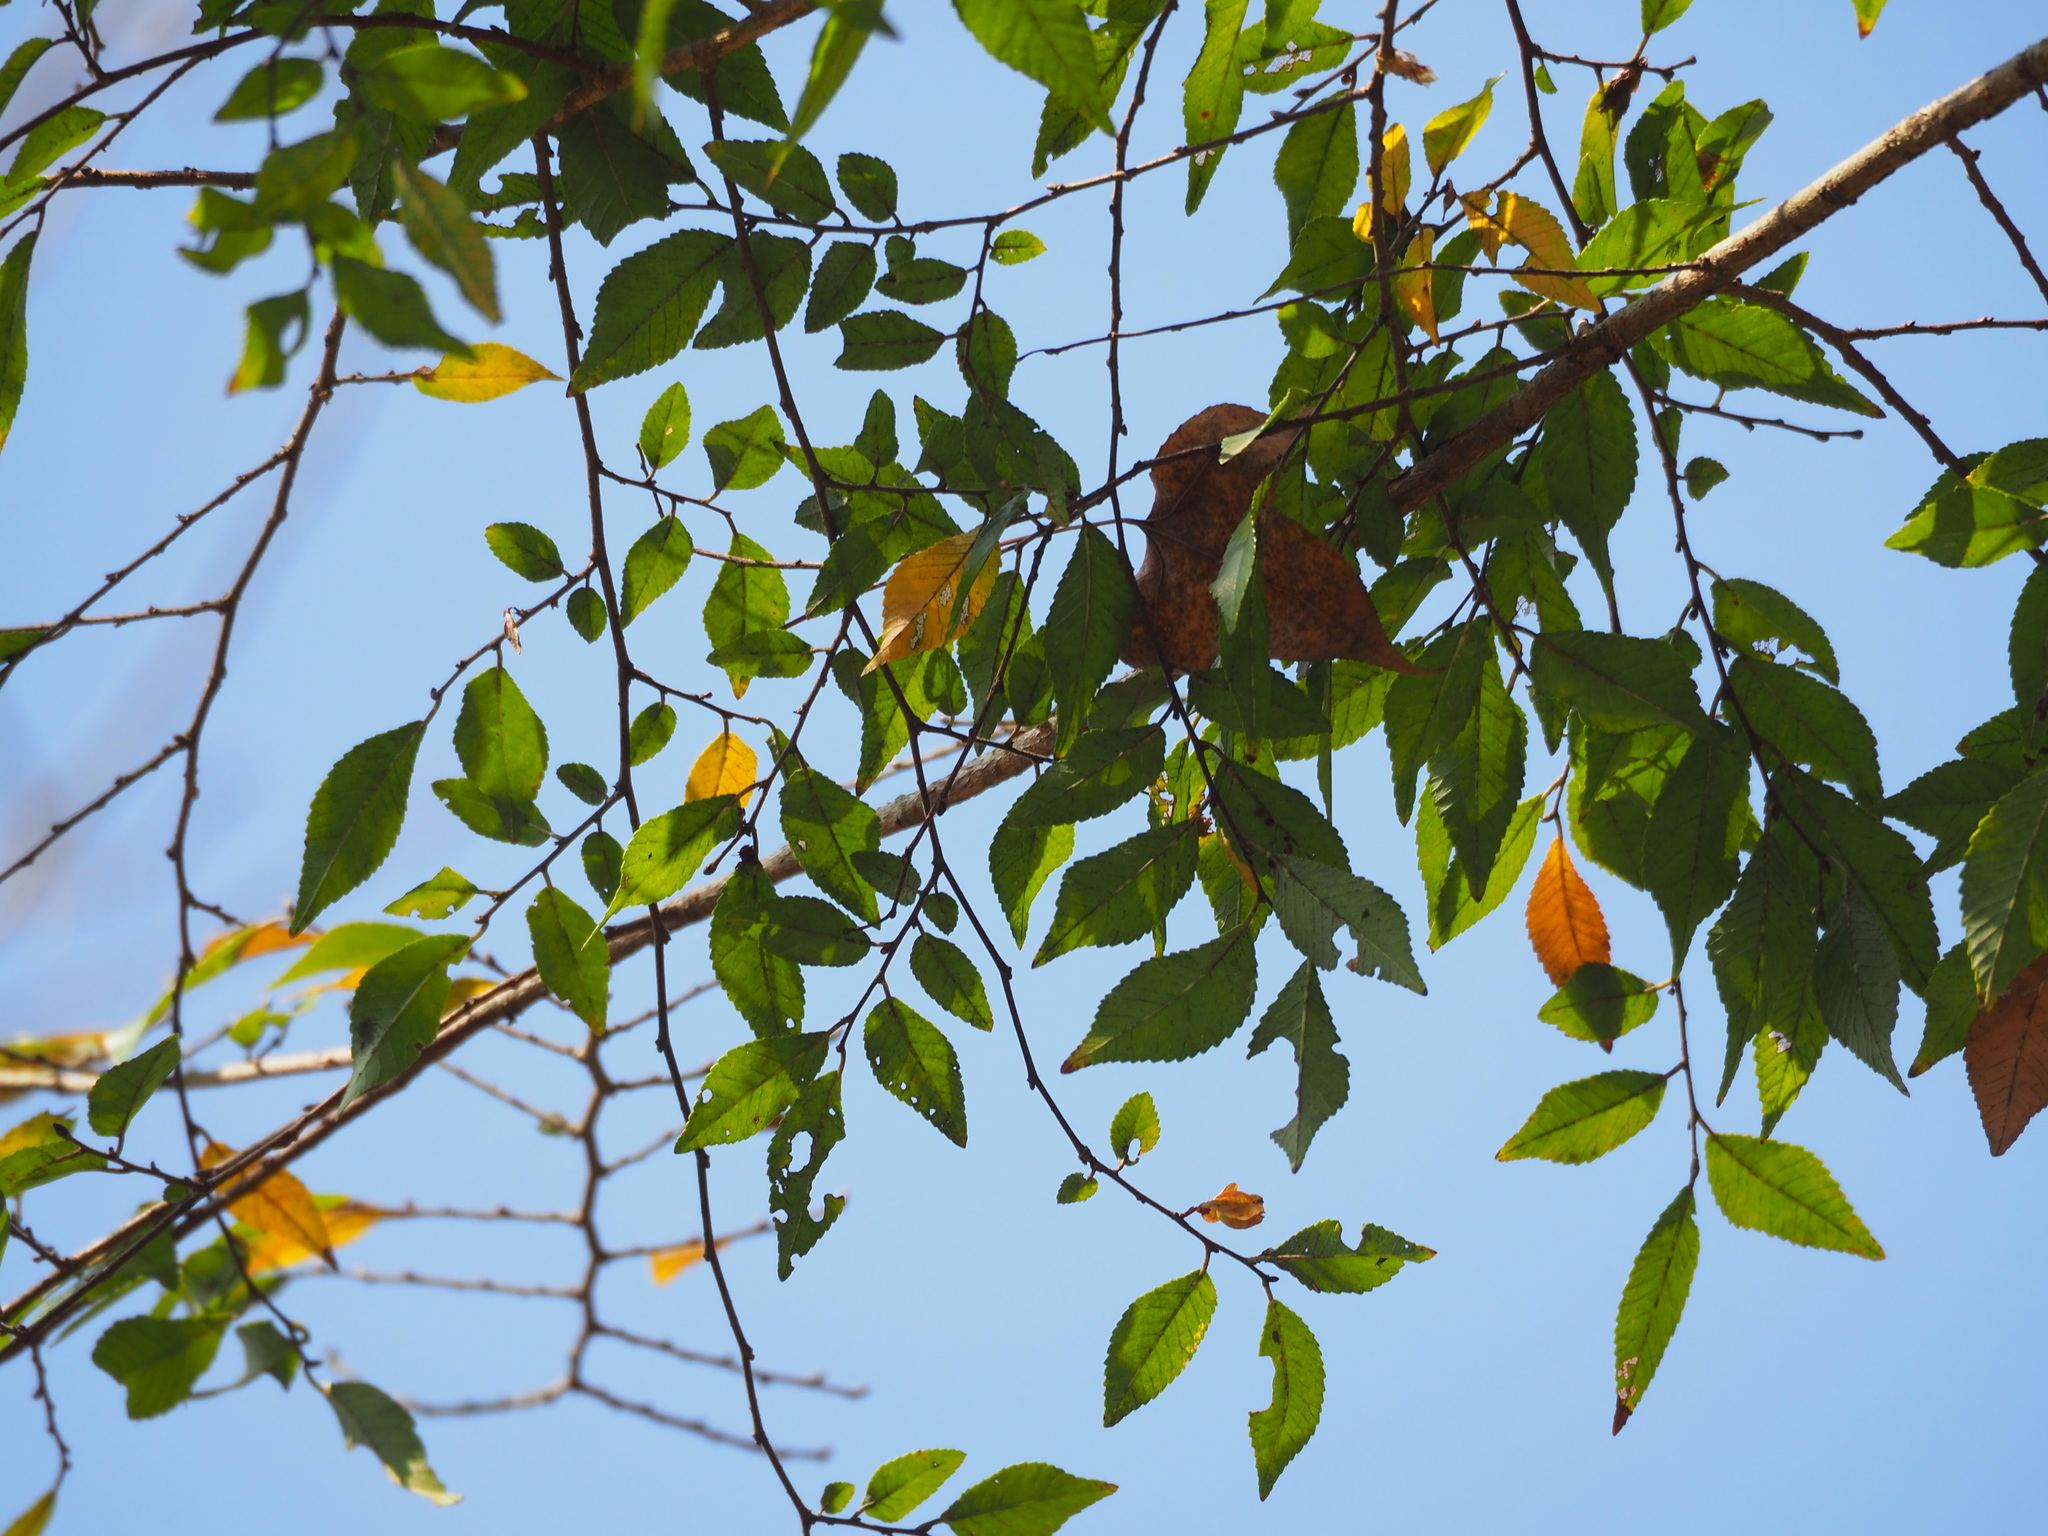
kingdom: Plantae
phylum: Tracheophyta
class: Magnoliopsida
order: Rosales
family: Ulmaceae
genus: Ulmus
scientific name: Ulmus parvifolia
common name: Chinese elm
